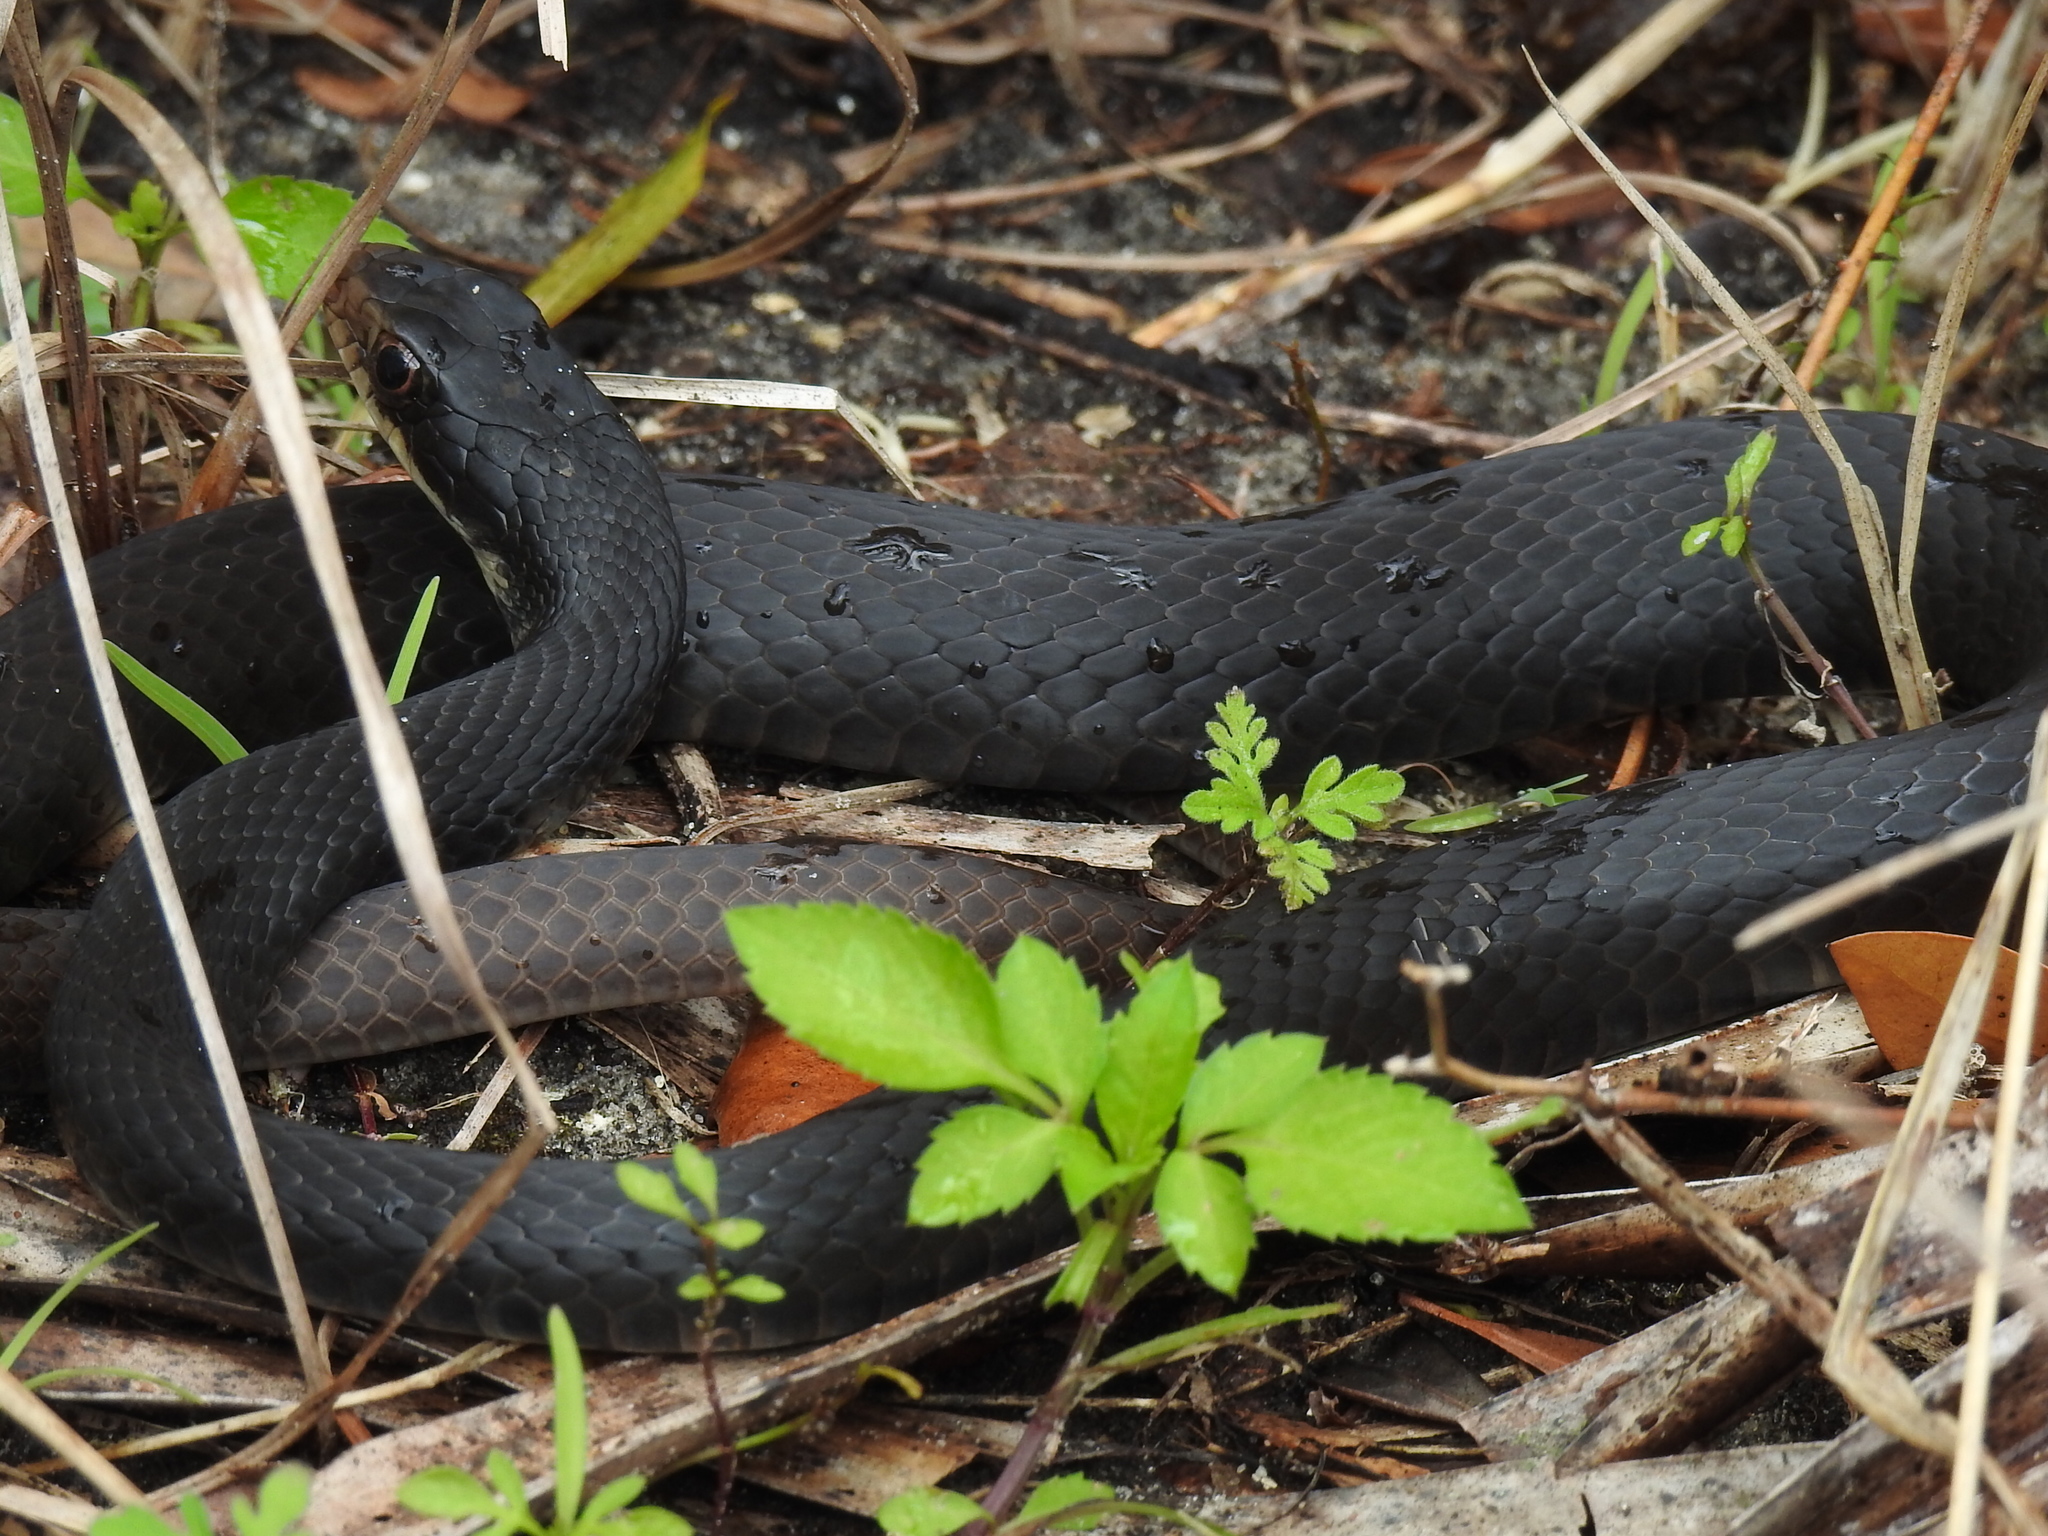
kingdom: Animalia
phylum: Chordata
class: Squamata
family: Colubridae
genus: Coluber
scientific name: Coluber constrictor
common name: Eastern racer
